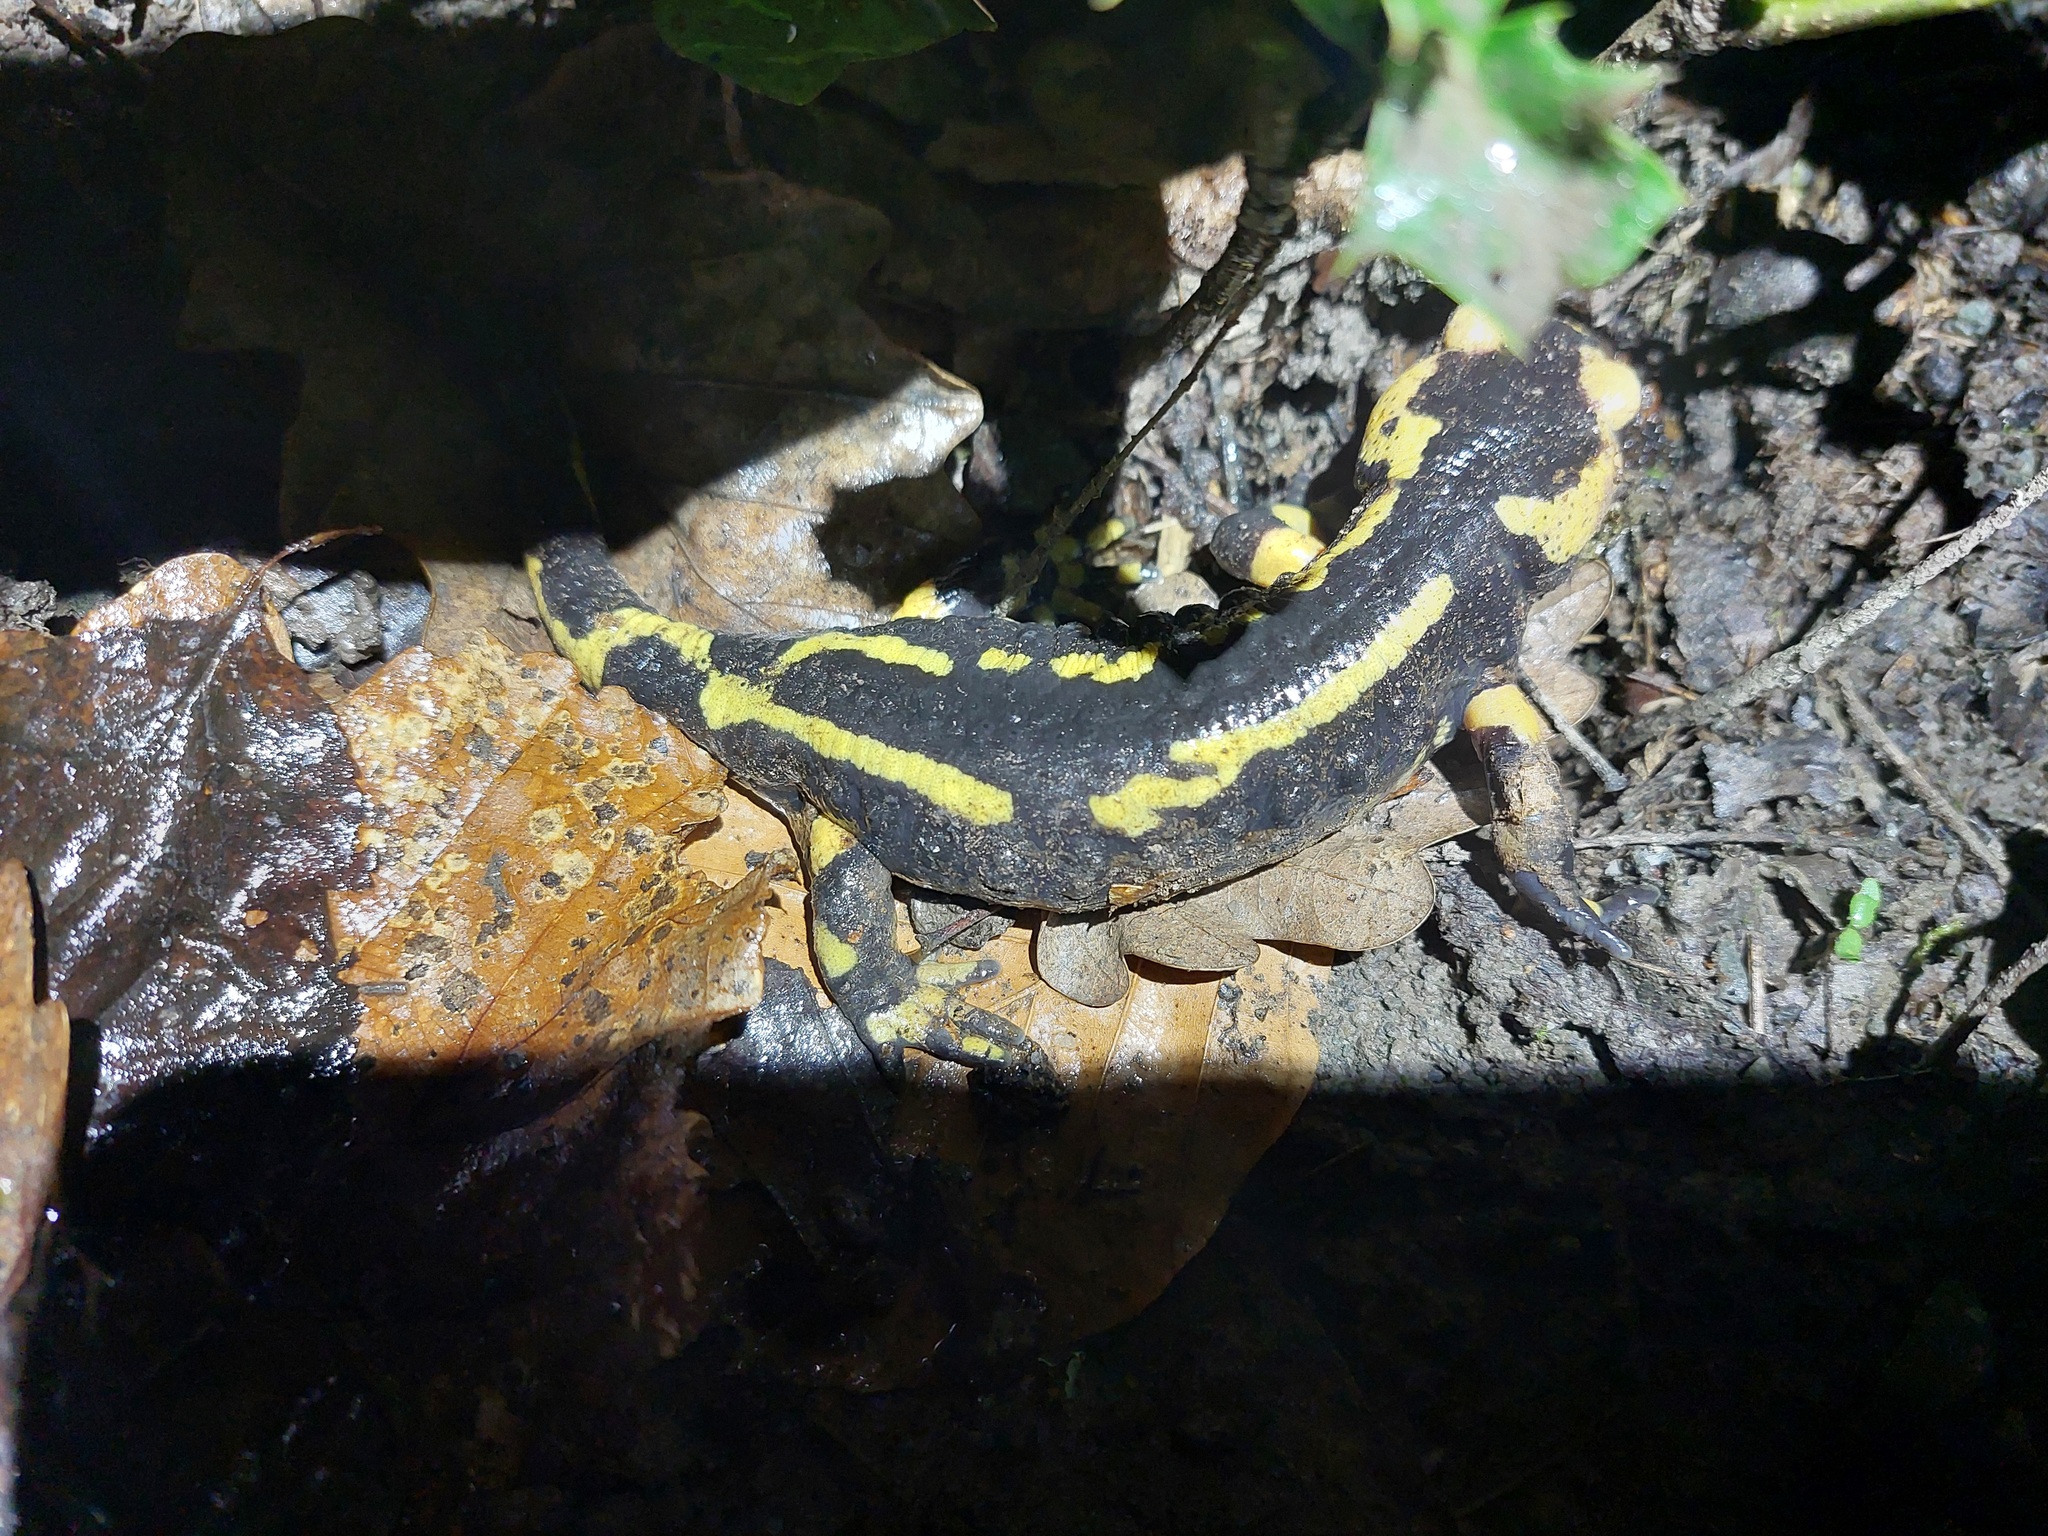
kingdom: Animalia
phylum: Chordata
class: Amphibia
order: Caudata
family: Salamandridae
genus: Salamandra
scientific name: Salamandra salamandra
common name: Fire salamander
